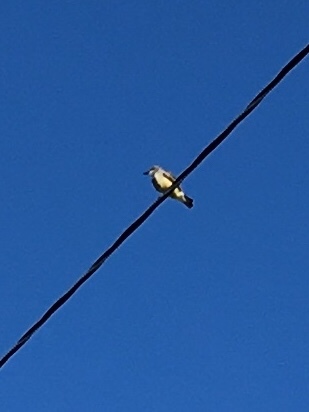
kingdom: Animalia
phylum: Chordata
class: Aves
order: Passeriformes
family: Tyrannidae
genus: Tyrannus
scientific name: Tyrannus vociferans
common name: Cassin's kingbird
